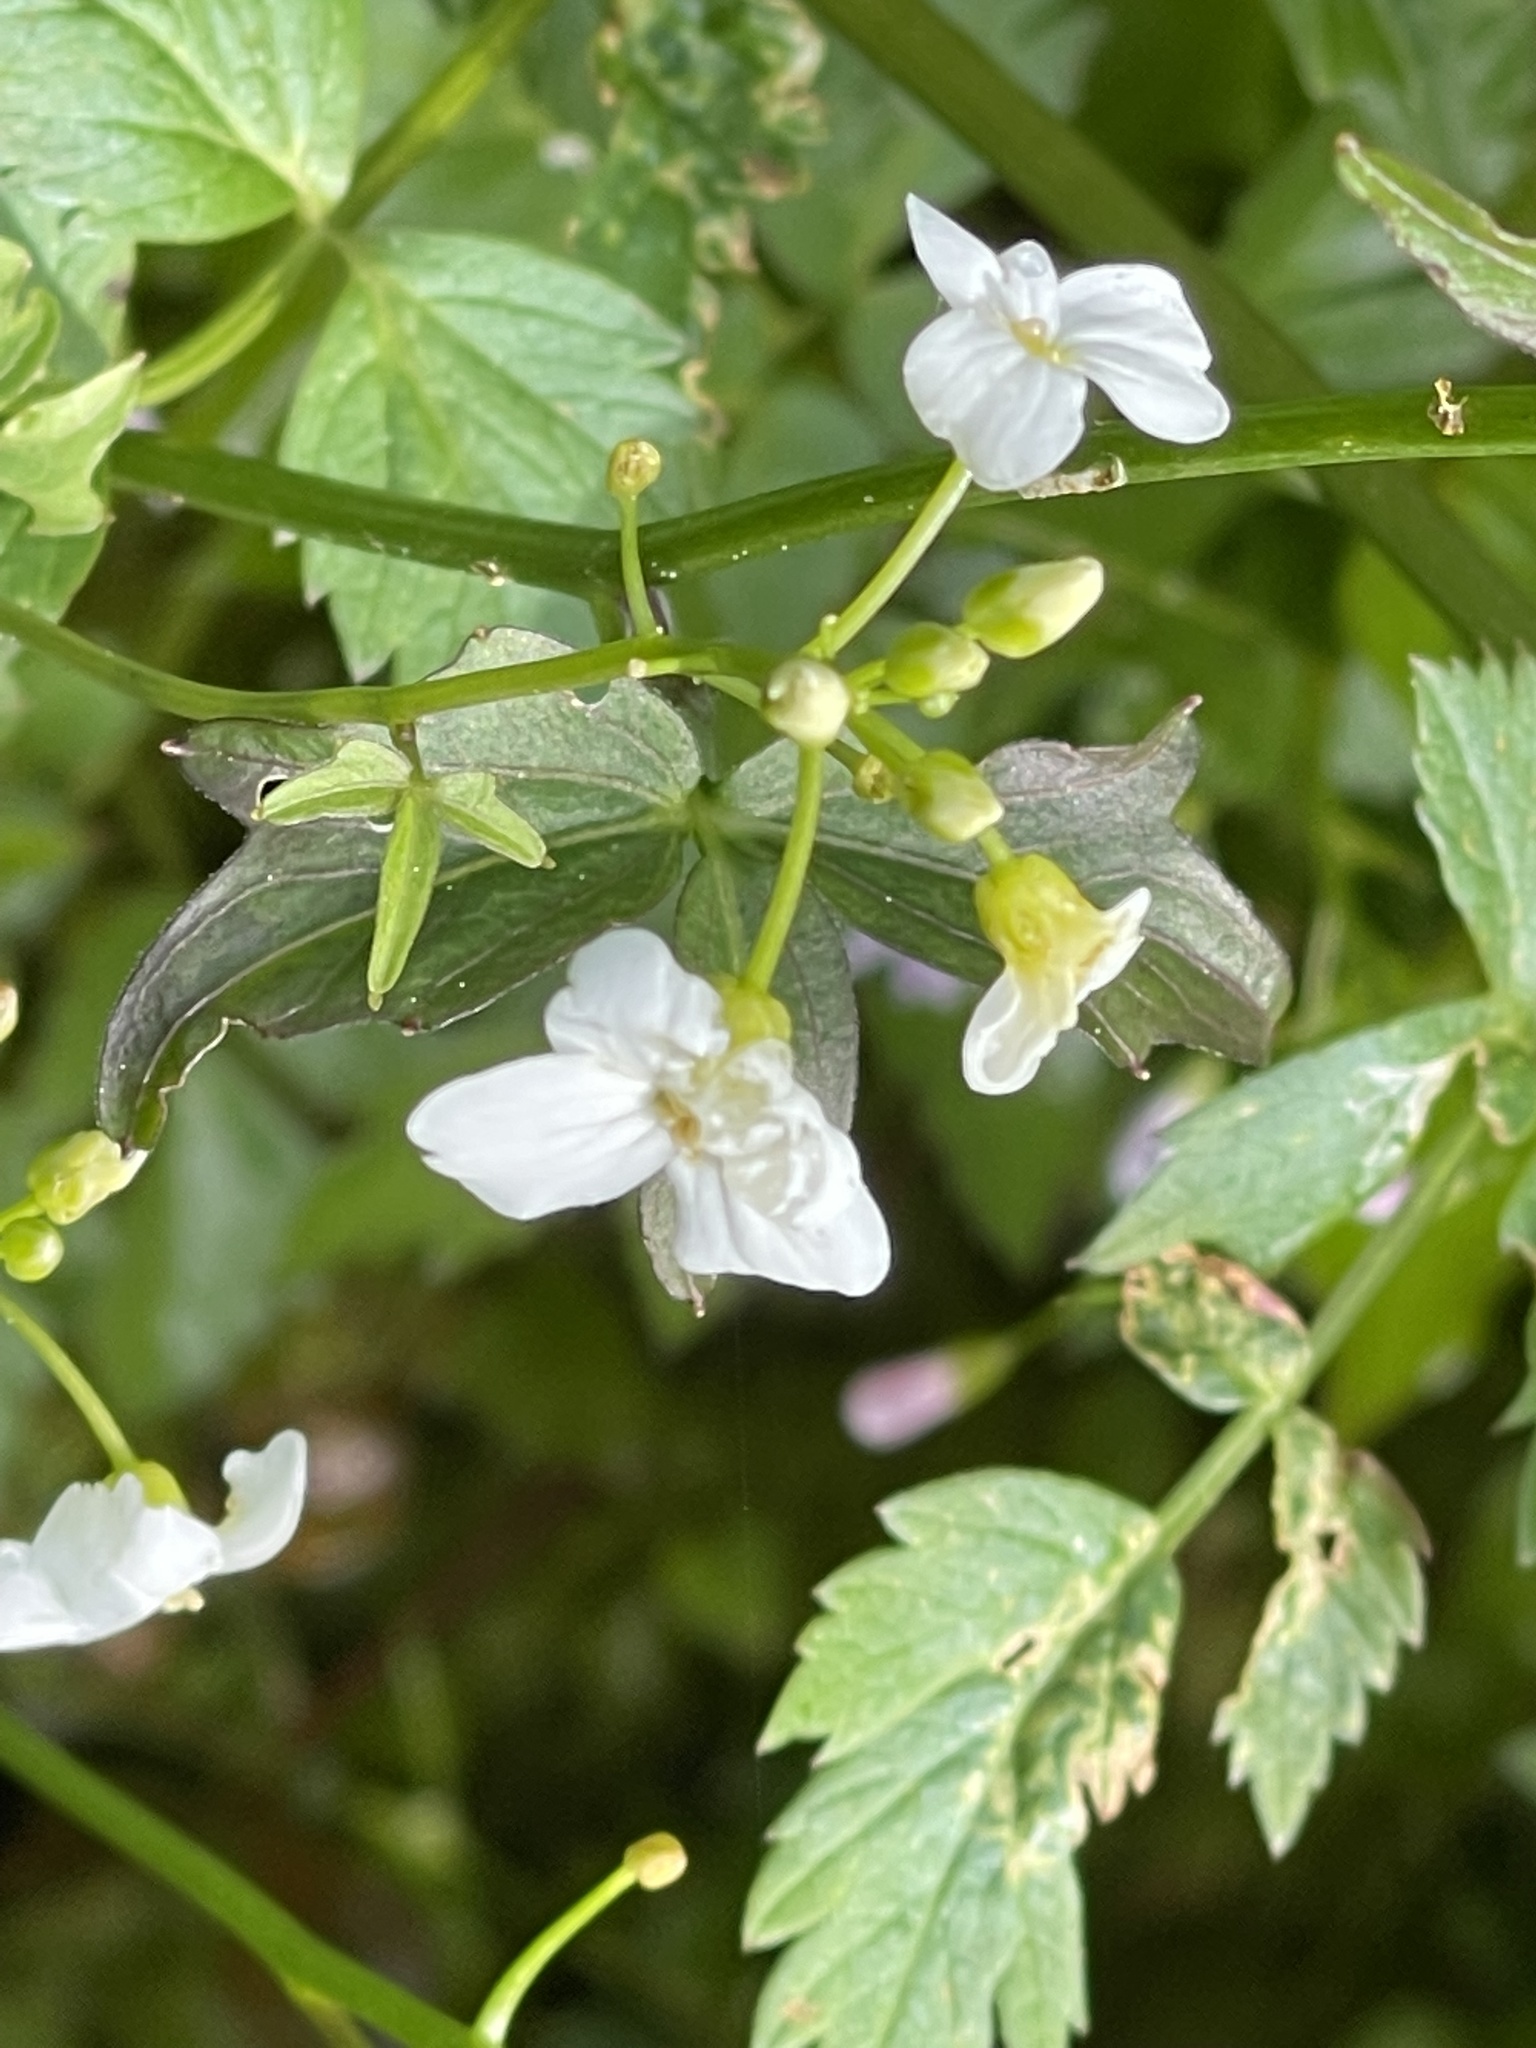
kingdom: Plantae
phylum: Tracheophyta
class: Magnoliopsida
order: Brassicales
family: Brassicaceae
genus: Cardamine
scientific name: Cardamine angulata
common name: Angled bittercress
